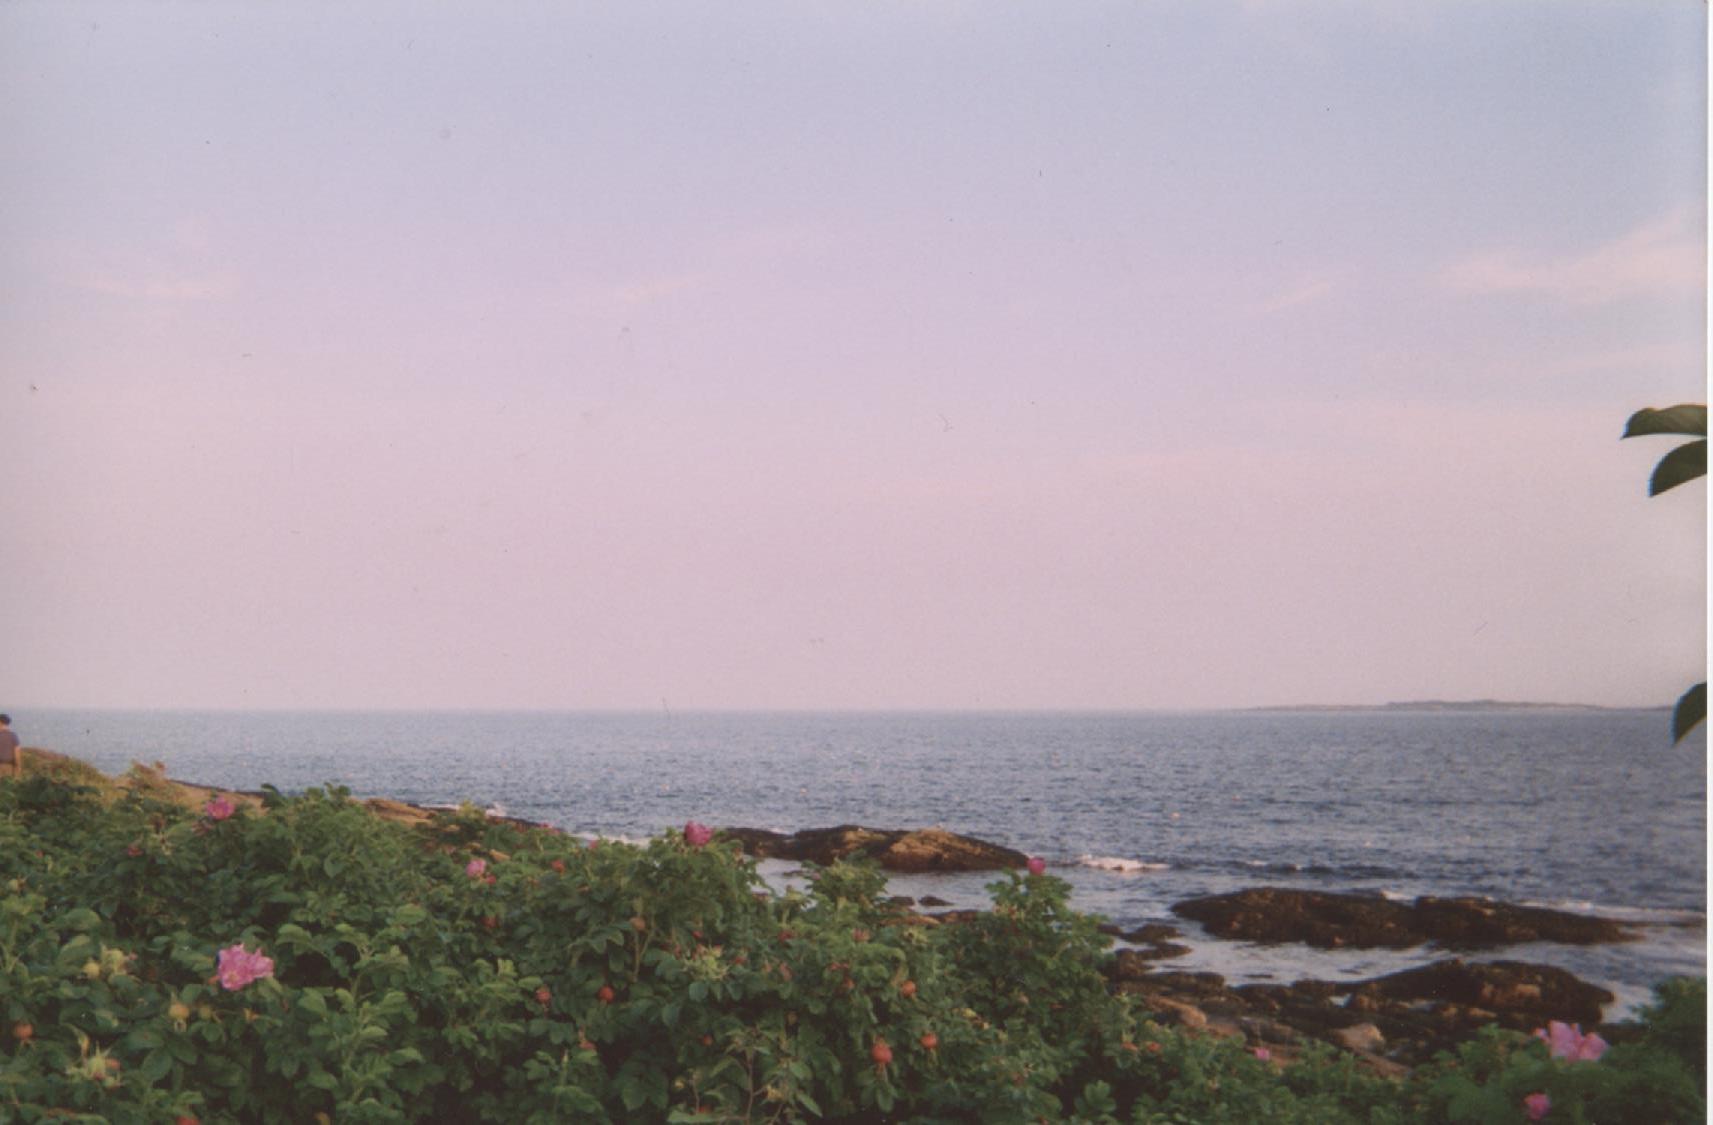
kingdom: Plantae
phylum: Tracheophyta
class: Magnoliopsida
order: Rosales
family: Rosaceae
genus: Rosa
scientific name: Rosa rugosa
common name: Japanese rose
